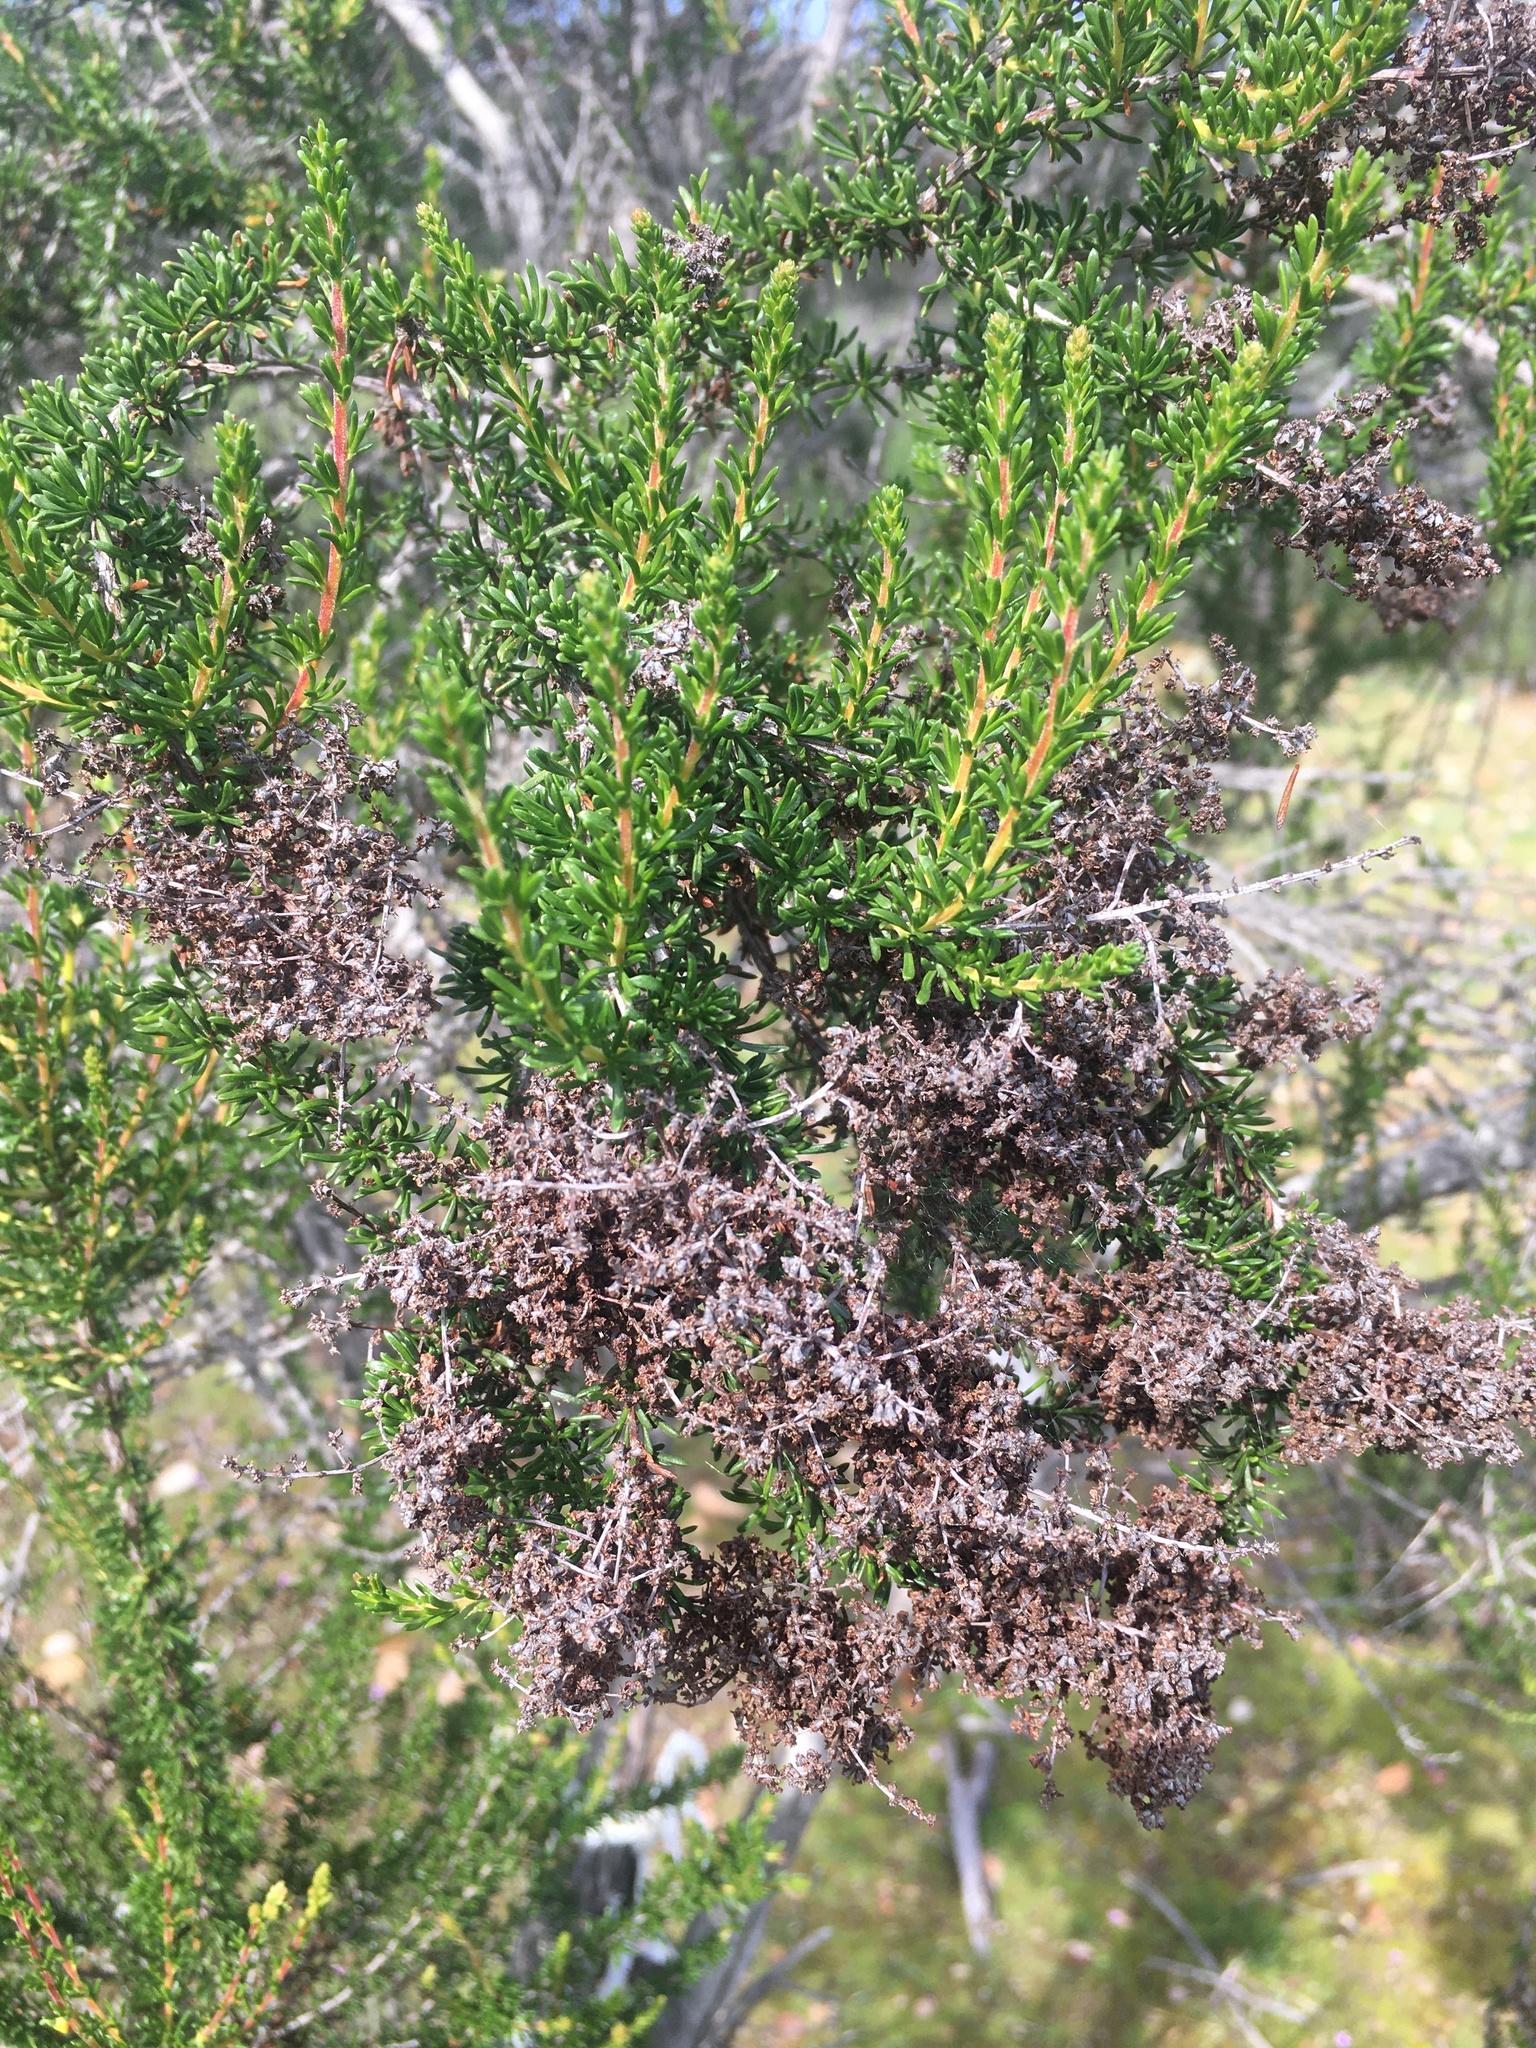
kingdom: Plantae
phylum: Tracheophyta
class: Magnoliopsida
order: Rosales
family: Rosaceae
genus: Adenostoma
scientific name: Adenostoma fasciculatum
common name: Chamise
